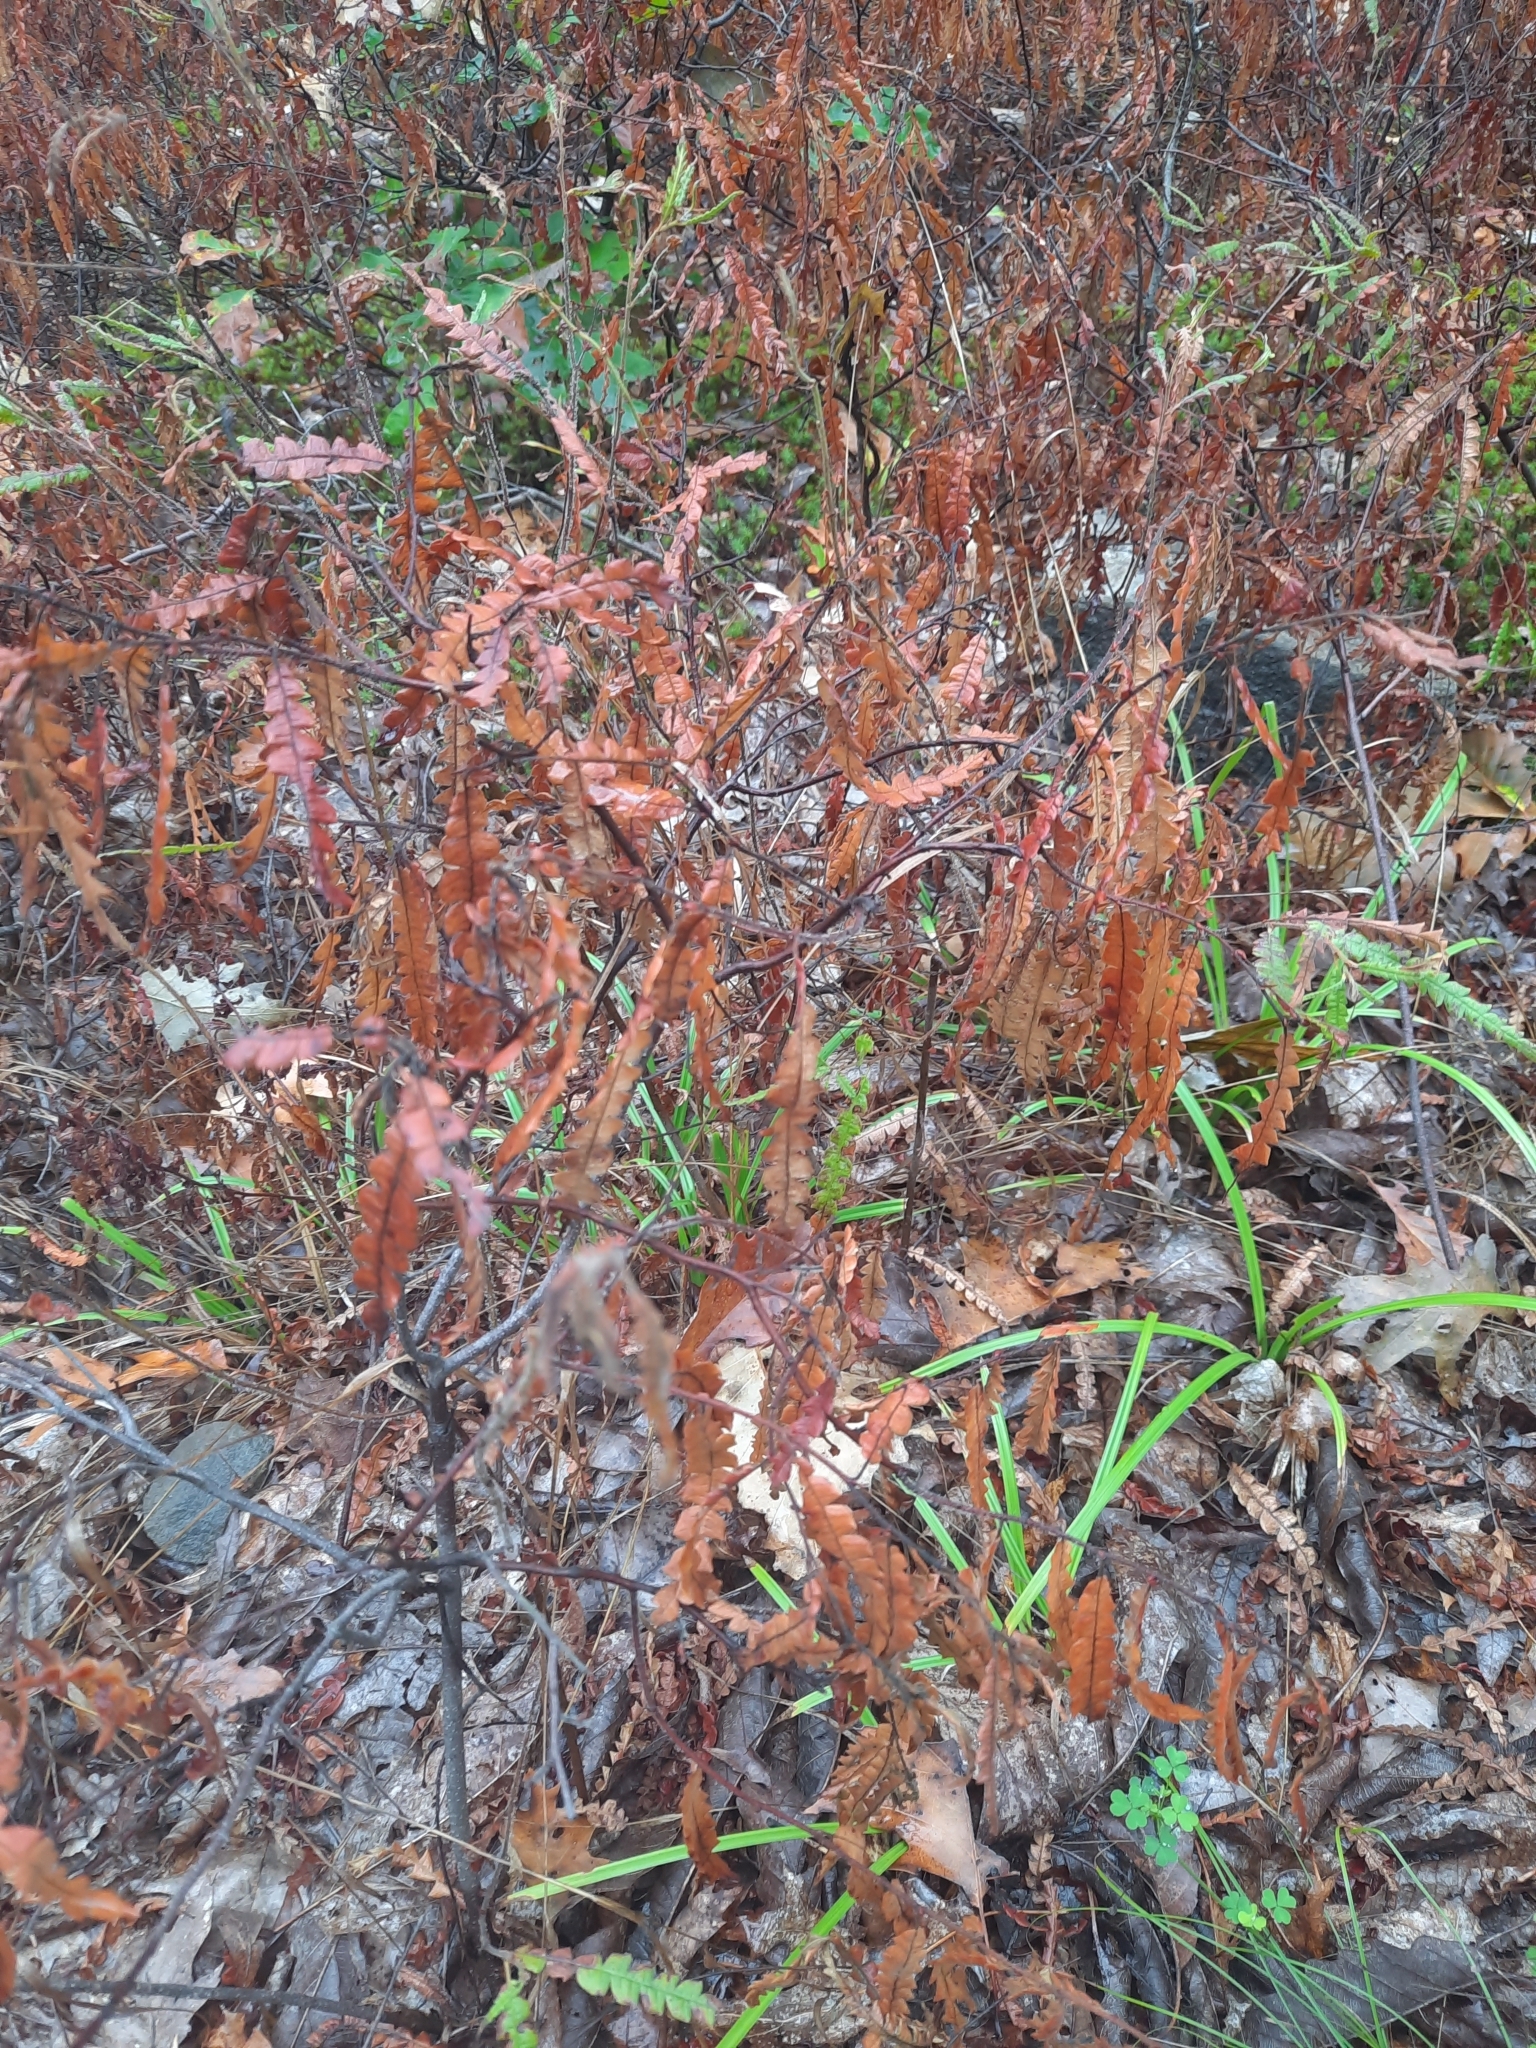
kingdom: Plantae
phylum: Tracheophyta
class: Magnoliopsida
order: Fagales
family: Myricaceae
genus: Comptonia
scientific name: Comptonia peregrina
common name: Sweet-fern
